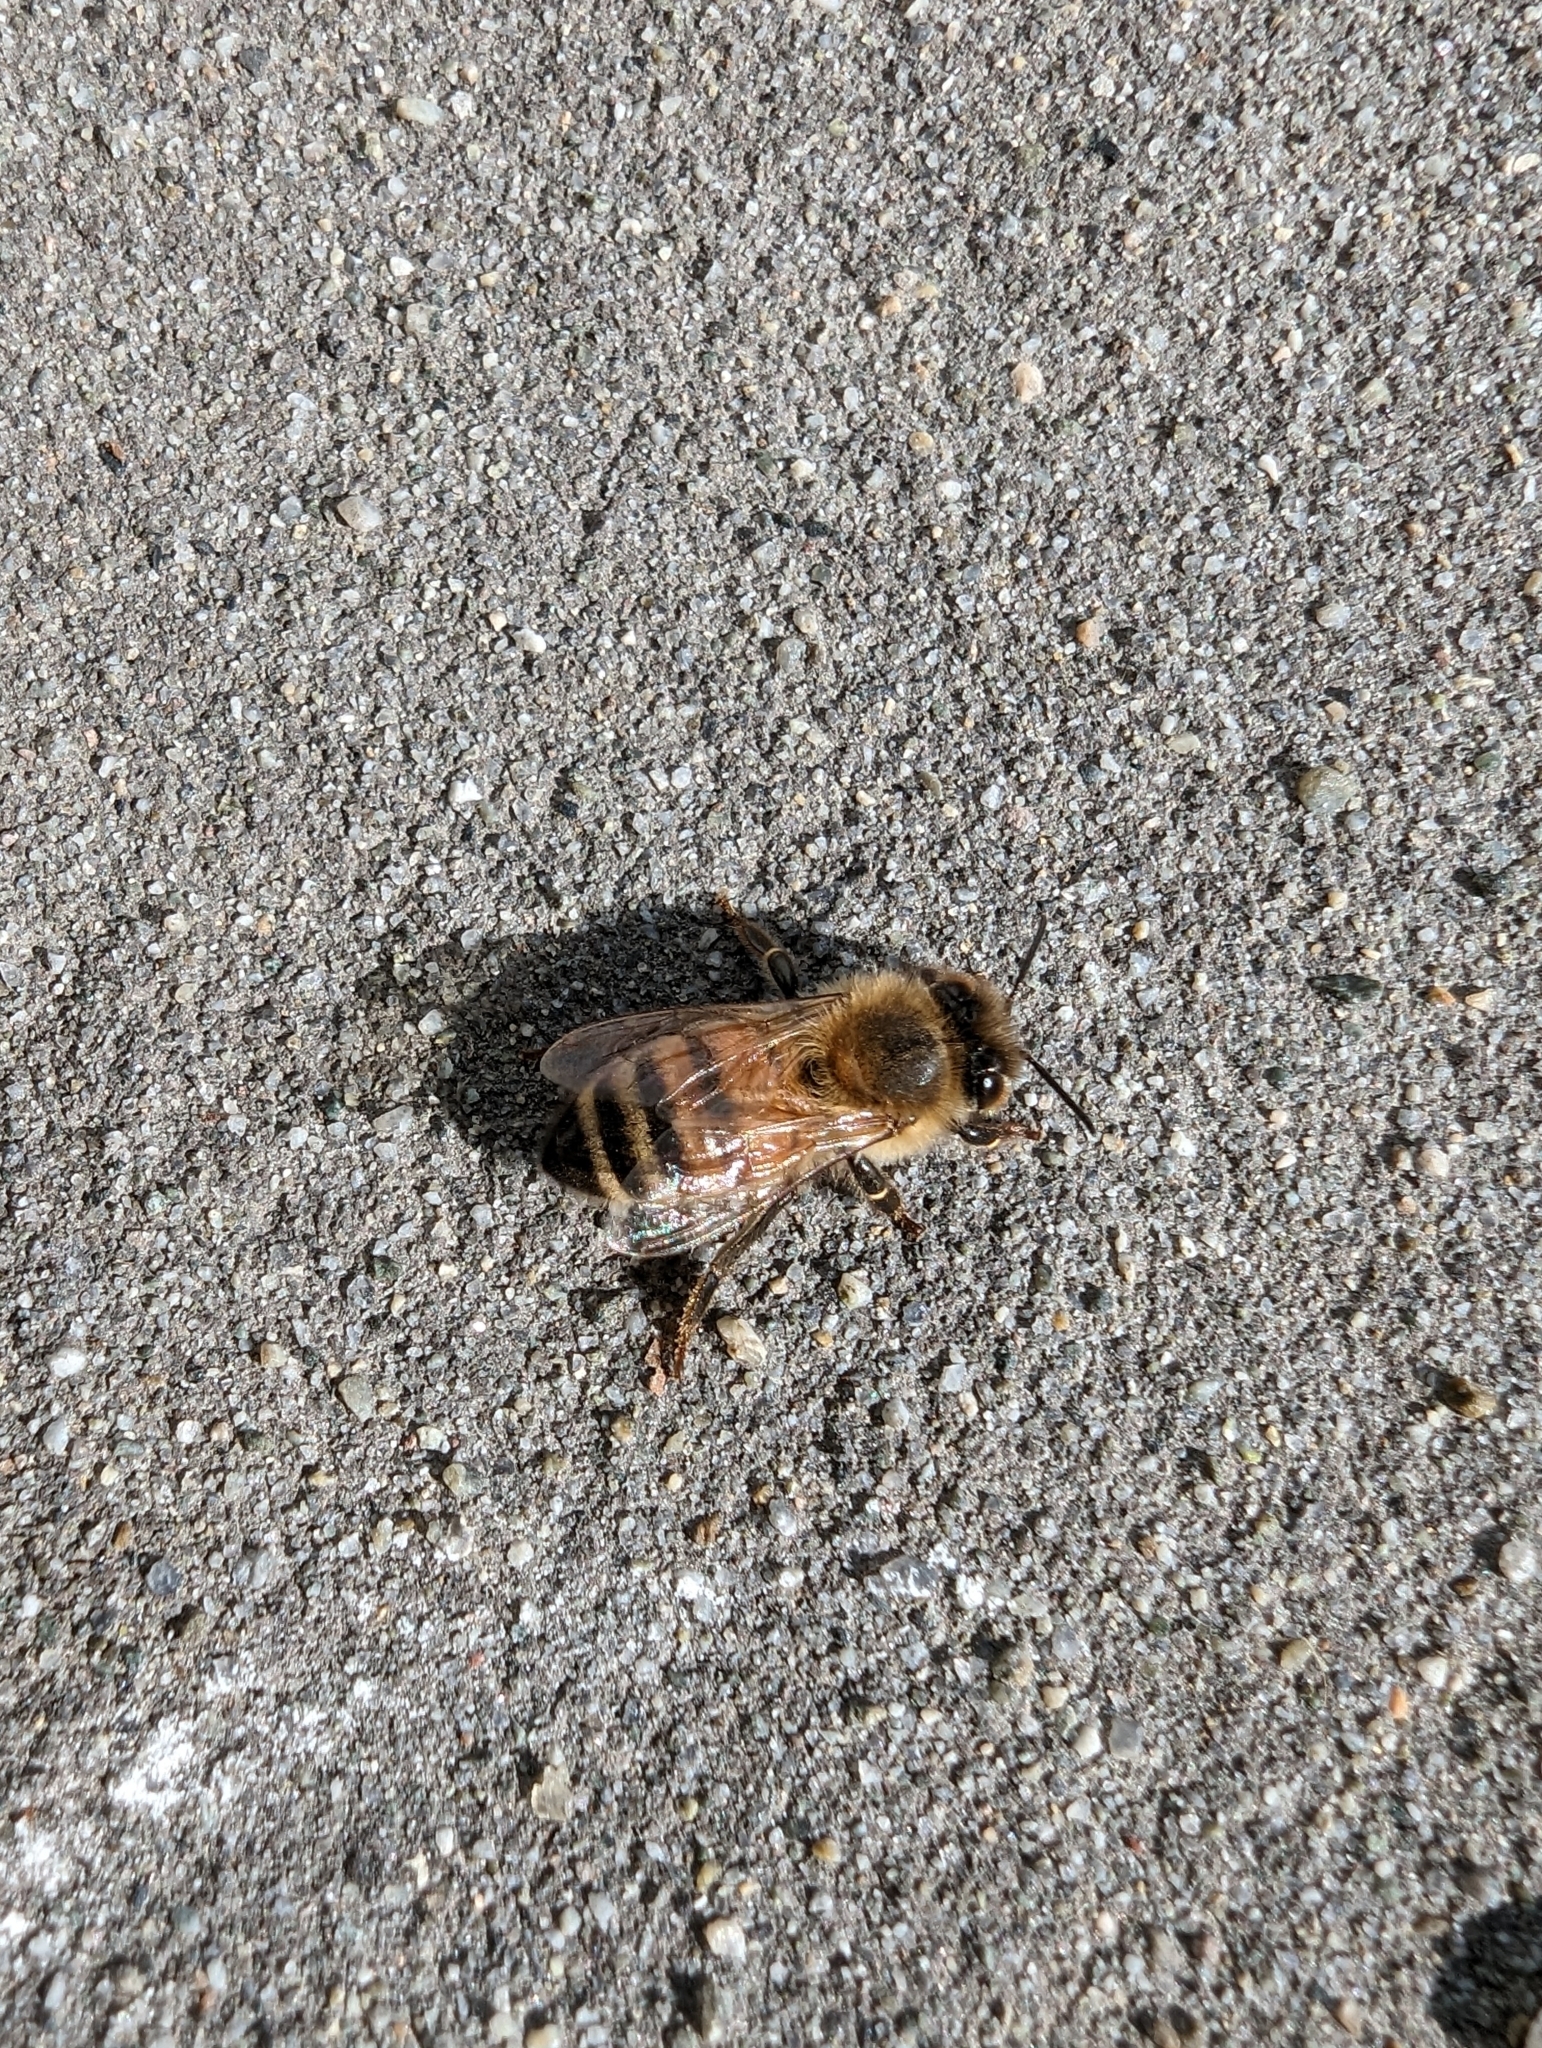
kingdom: Animalia
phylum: Arthropoda
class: Insecta
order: Hymenoptera
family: Apidae
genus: Apis
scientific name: Apis mellifera
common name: Honey bee
